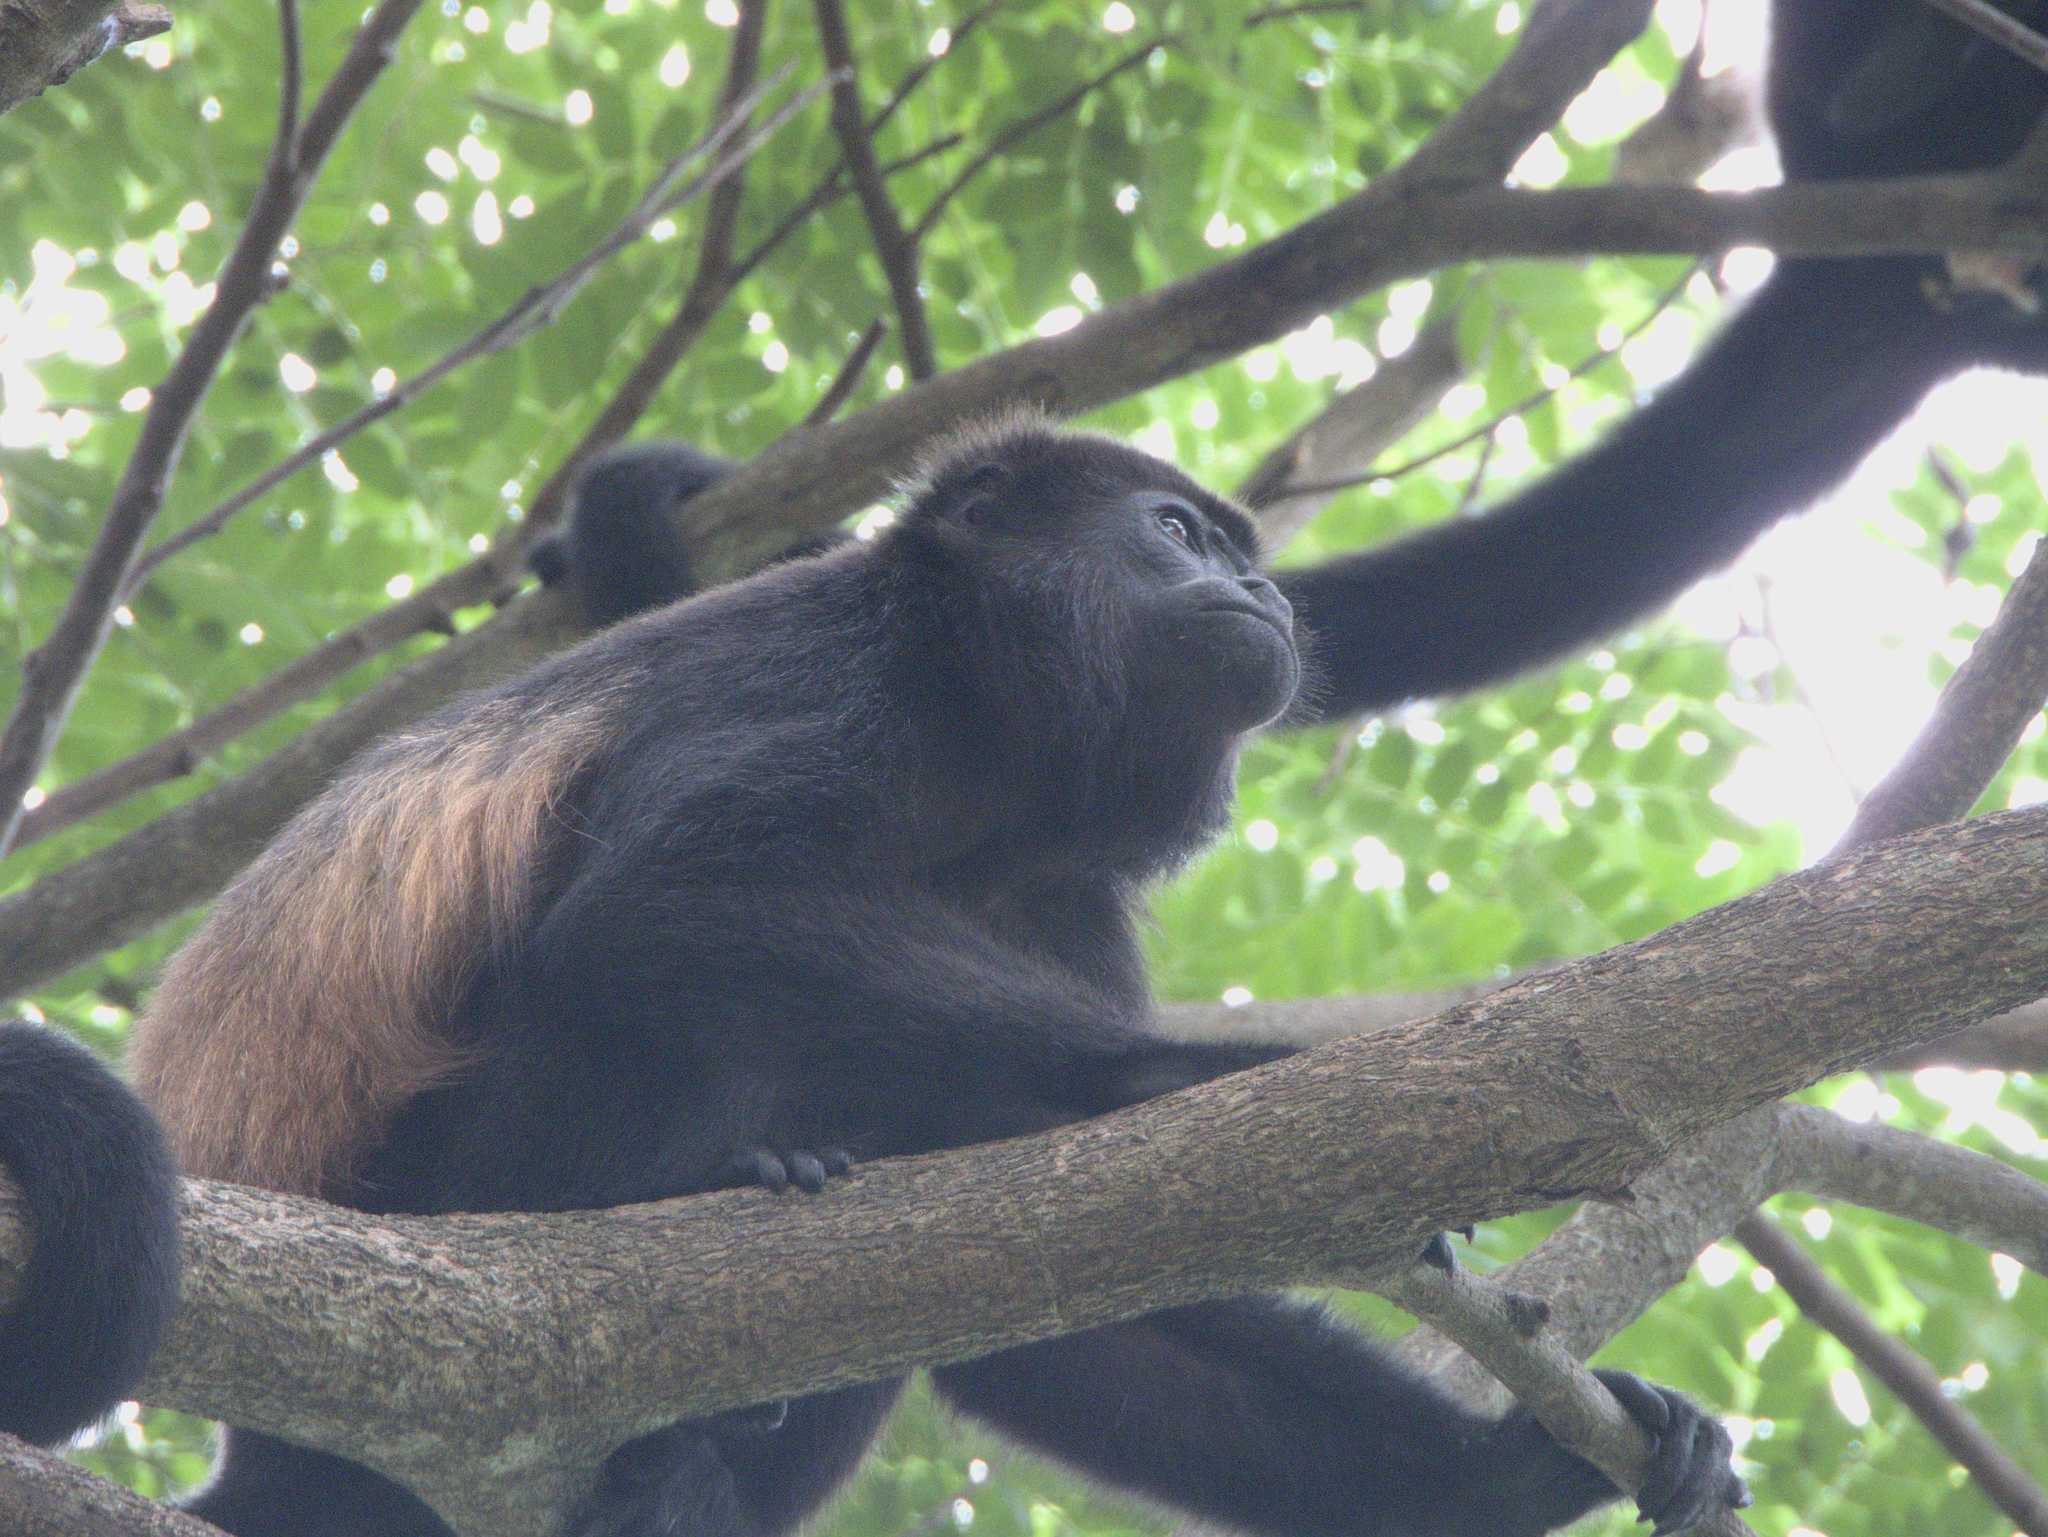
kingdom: Animalia
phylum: Chordata
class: Mammalia
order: Primates
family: Atelidae
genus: Alouatta
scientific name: Alouatta palliata
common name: Mantled howler
